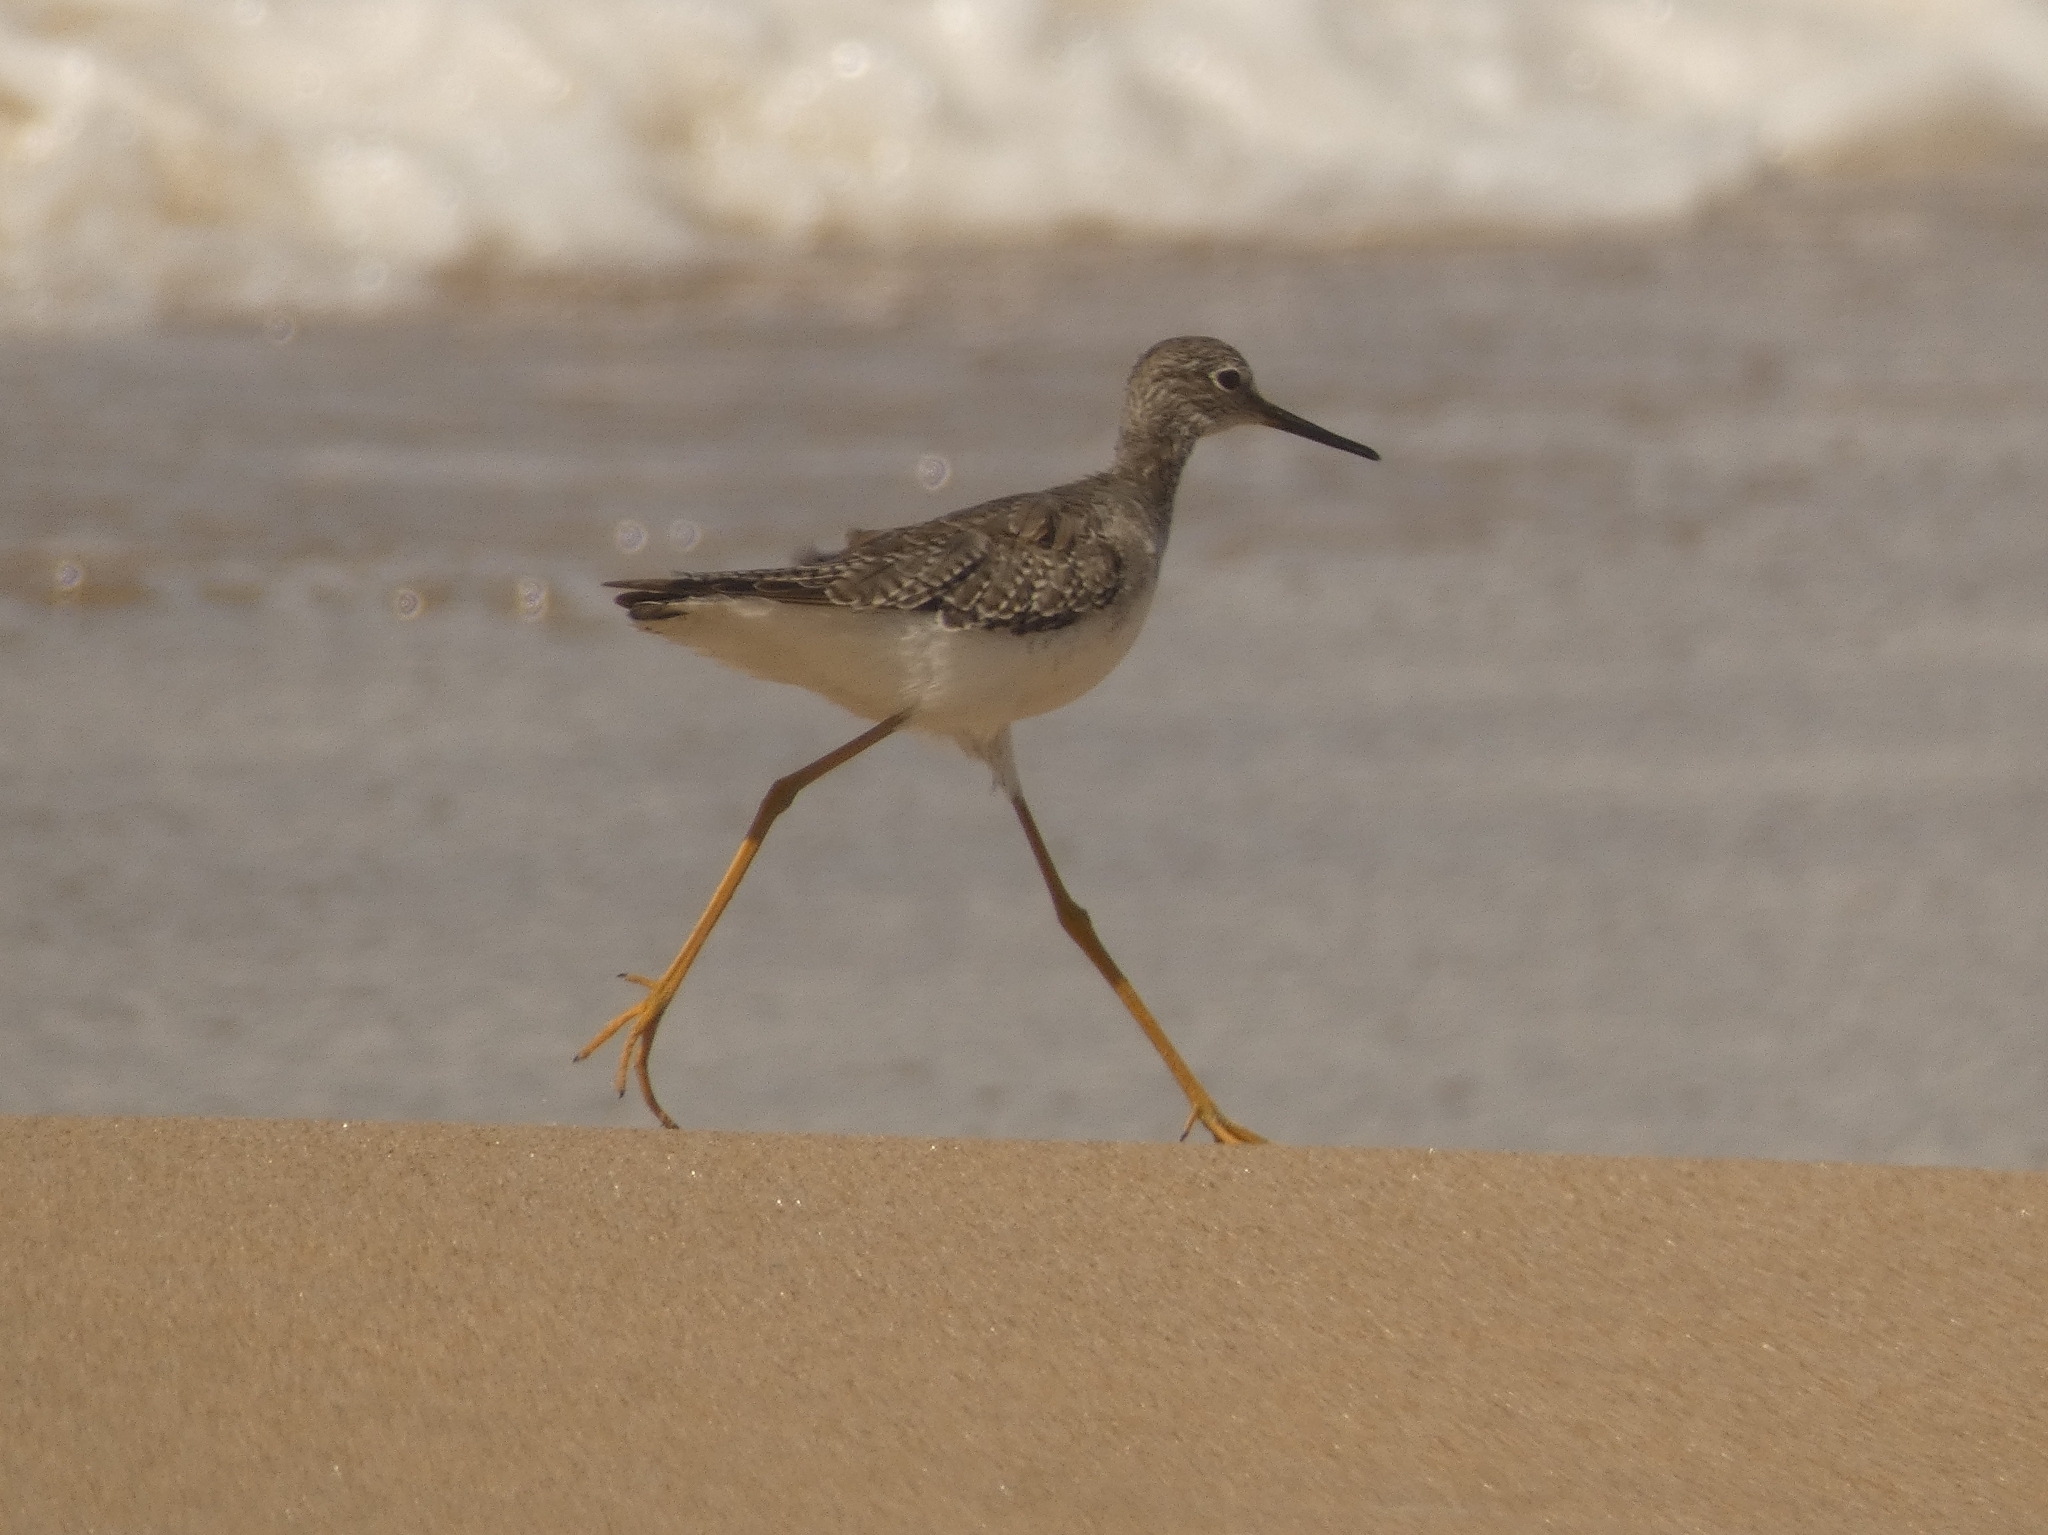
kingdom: Animalia
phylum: Chordata
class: Aves
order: Charadriiformes
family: Scolopacidae
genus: Tringa
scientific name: Tringa flavipes
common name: Lesser yellowlegs
